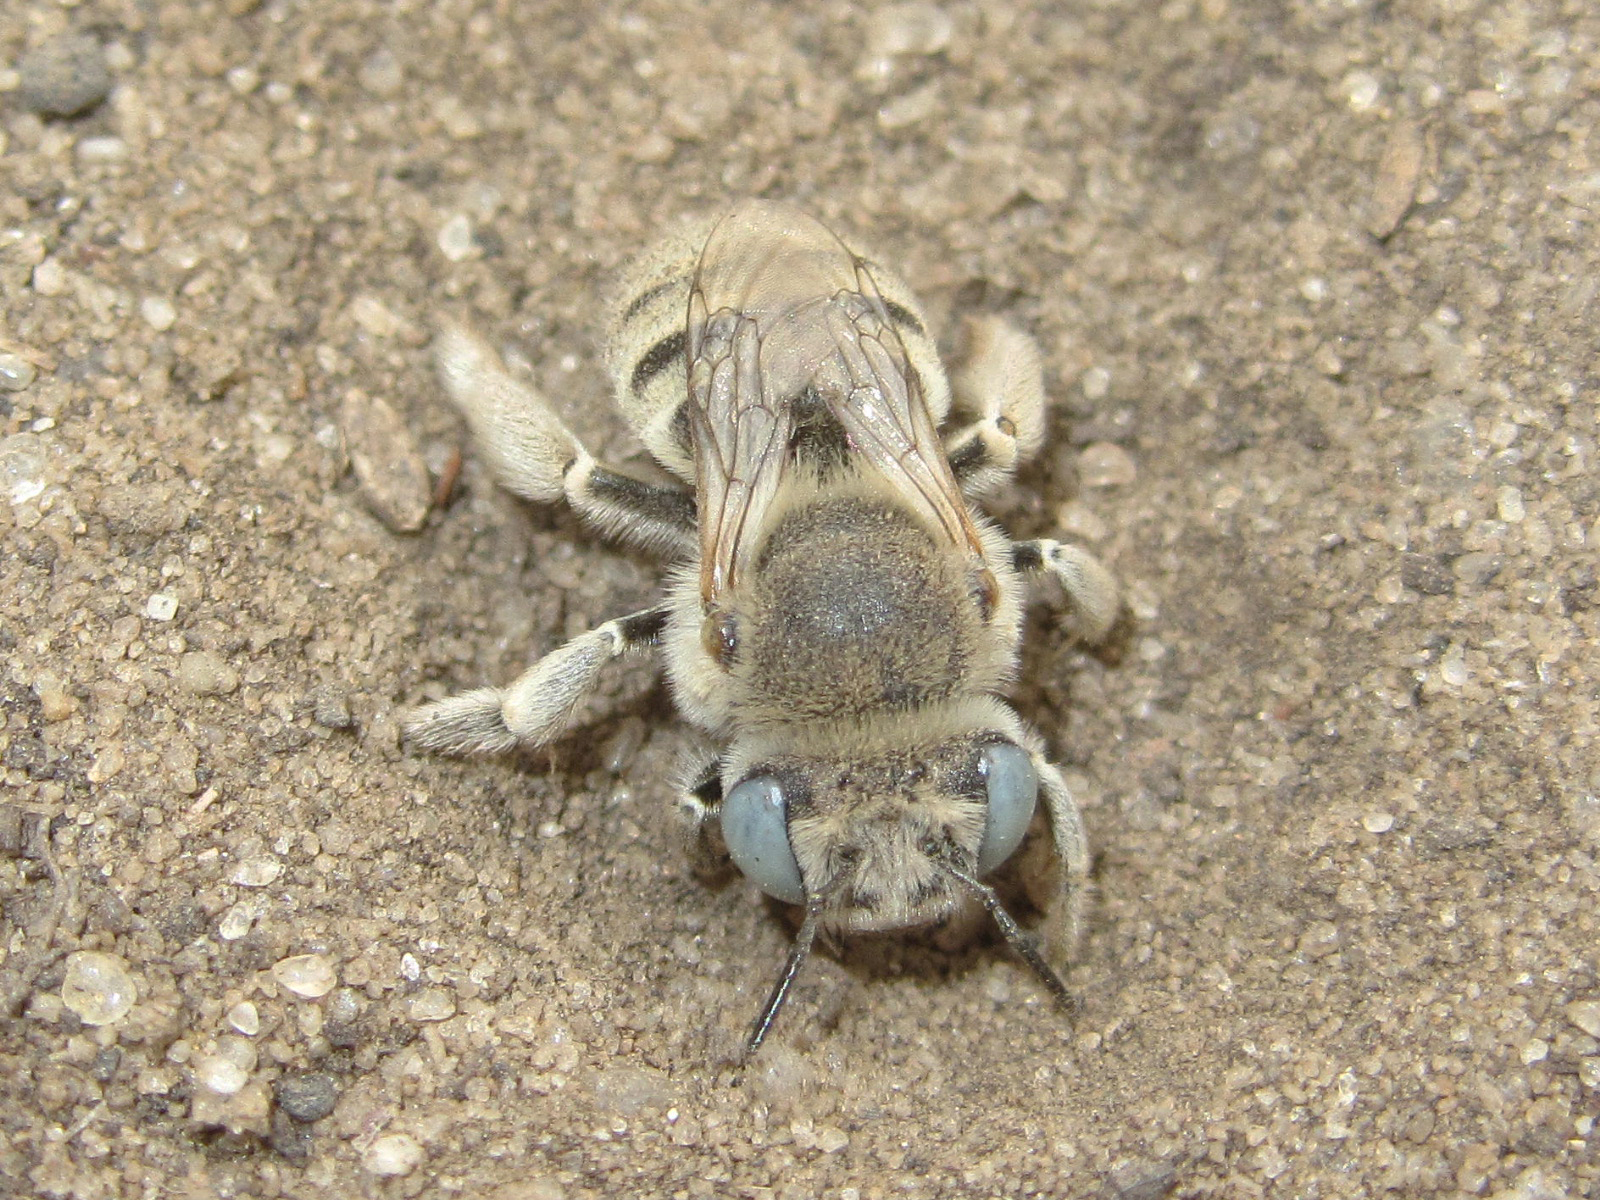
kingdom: Animalia
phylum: Arthropoda
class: Insecta
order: Hymenoptera
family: Apidae
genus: Anthophora
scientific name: Anthophora bimaculata
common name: Green-eyed flower bee
